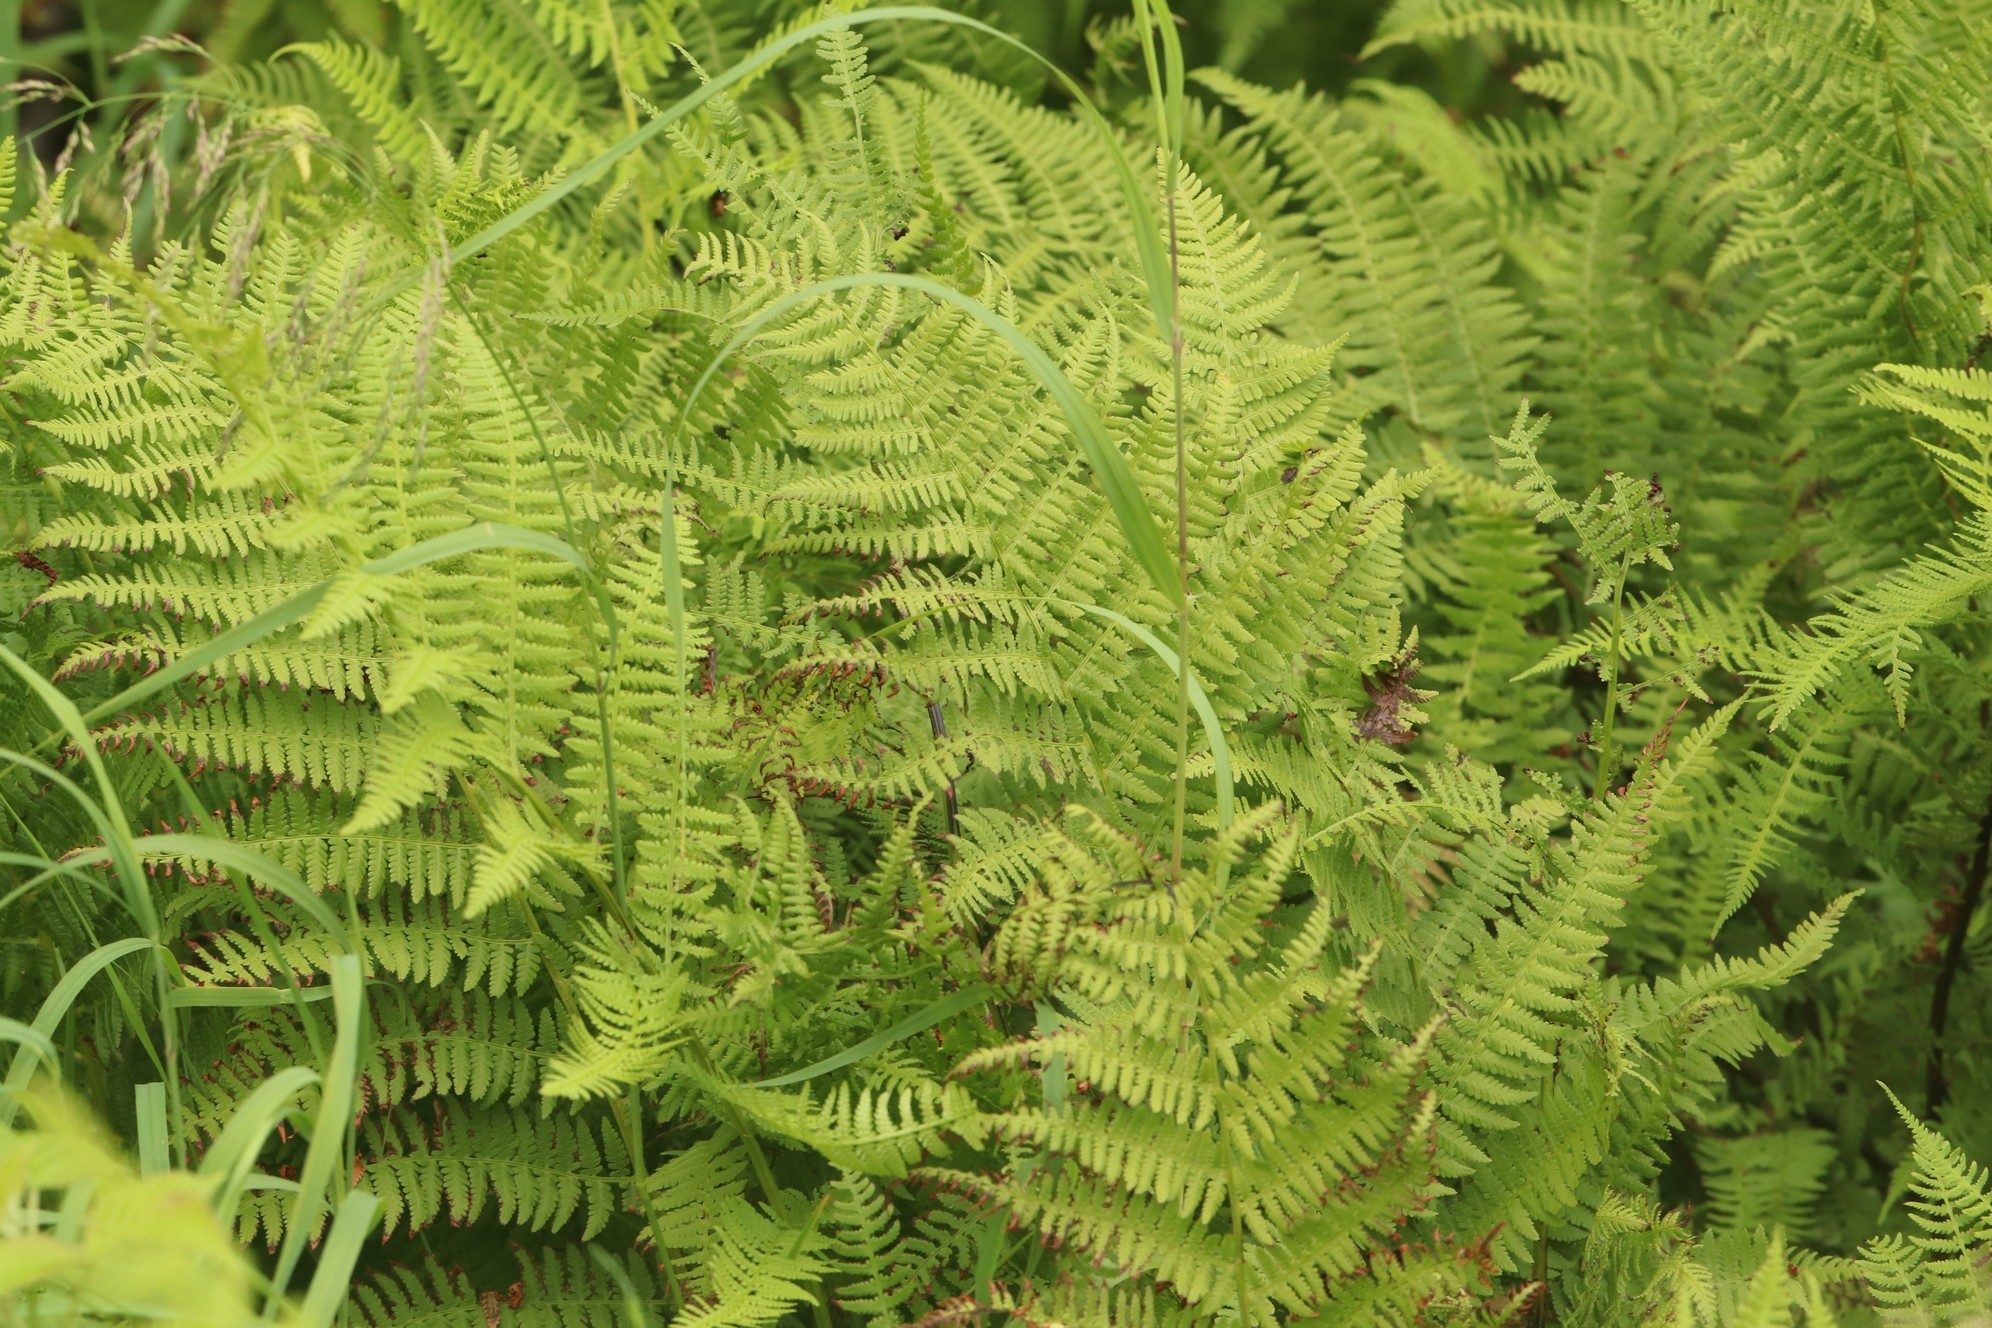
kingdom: Plantae
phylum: Tracheophyta
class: Polypodiopsida
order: Polypodiales
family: Athyriaceae
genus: Athyrium
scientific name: Athyrium filix-femina
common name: Lady fern
